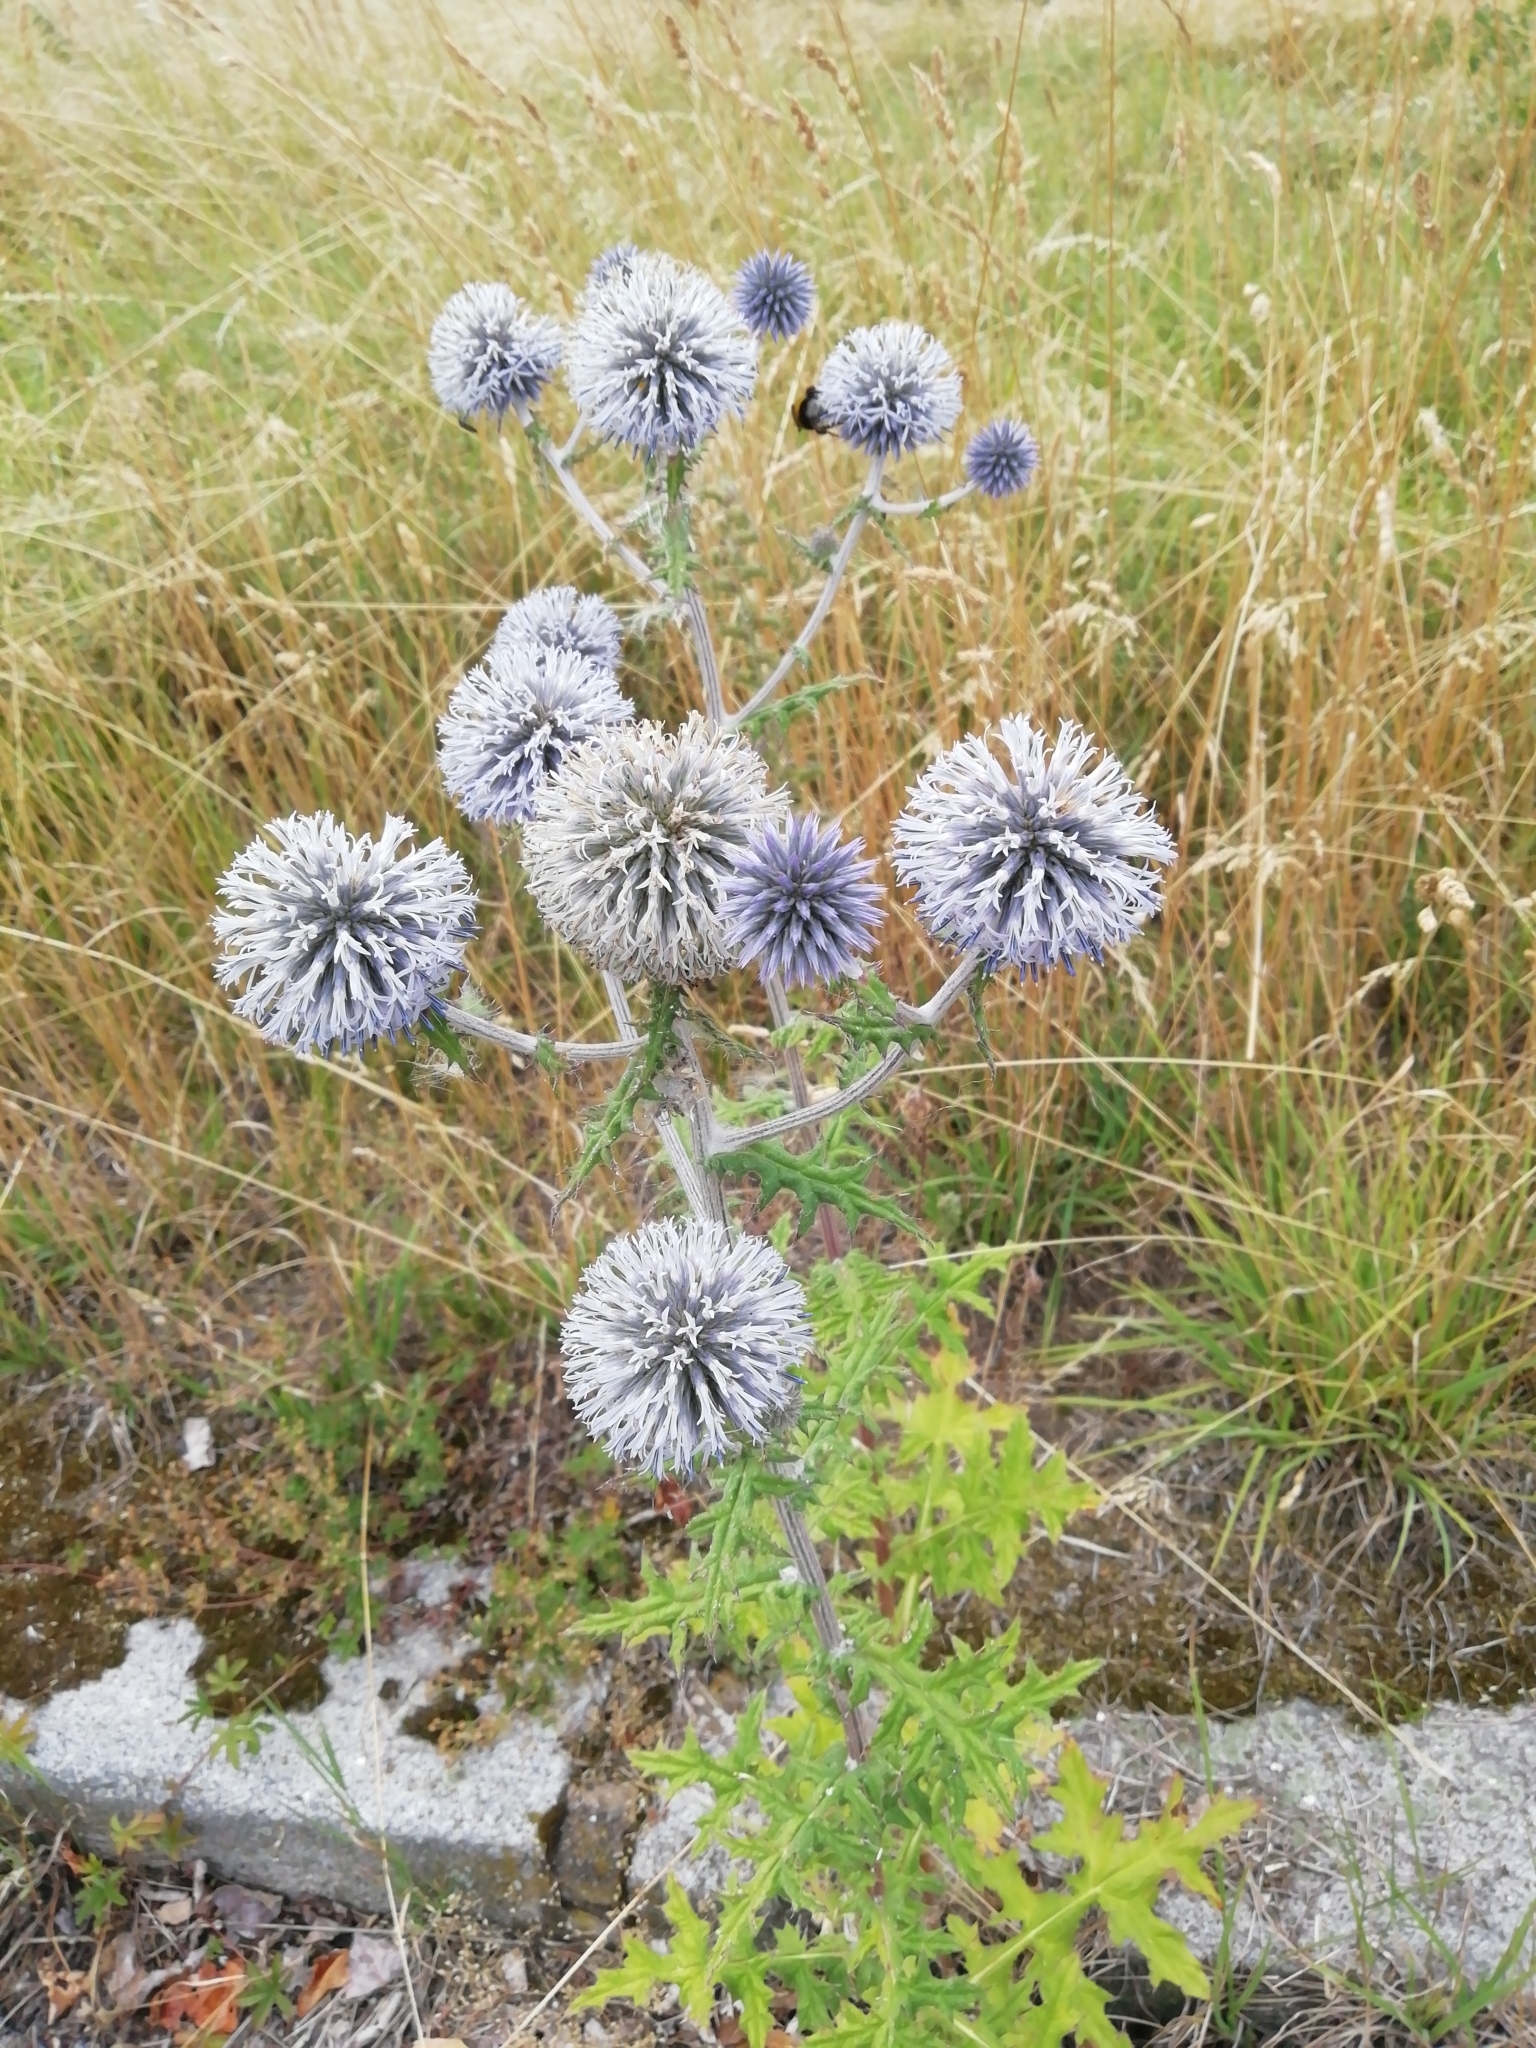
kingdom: Plantae
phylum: Tracheophyta
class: Magnoliopsida
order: Asterales
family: Asteraceae
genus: Echinops
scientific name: Echinops sphaerocephalus
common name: Glandular globe-thistle
